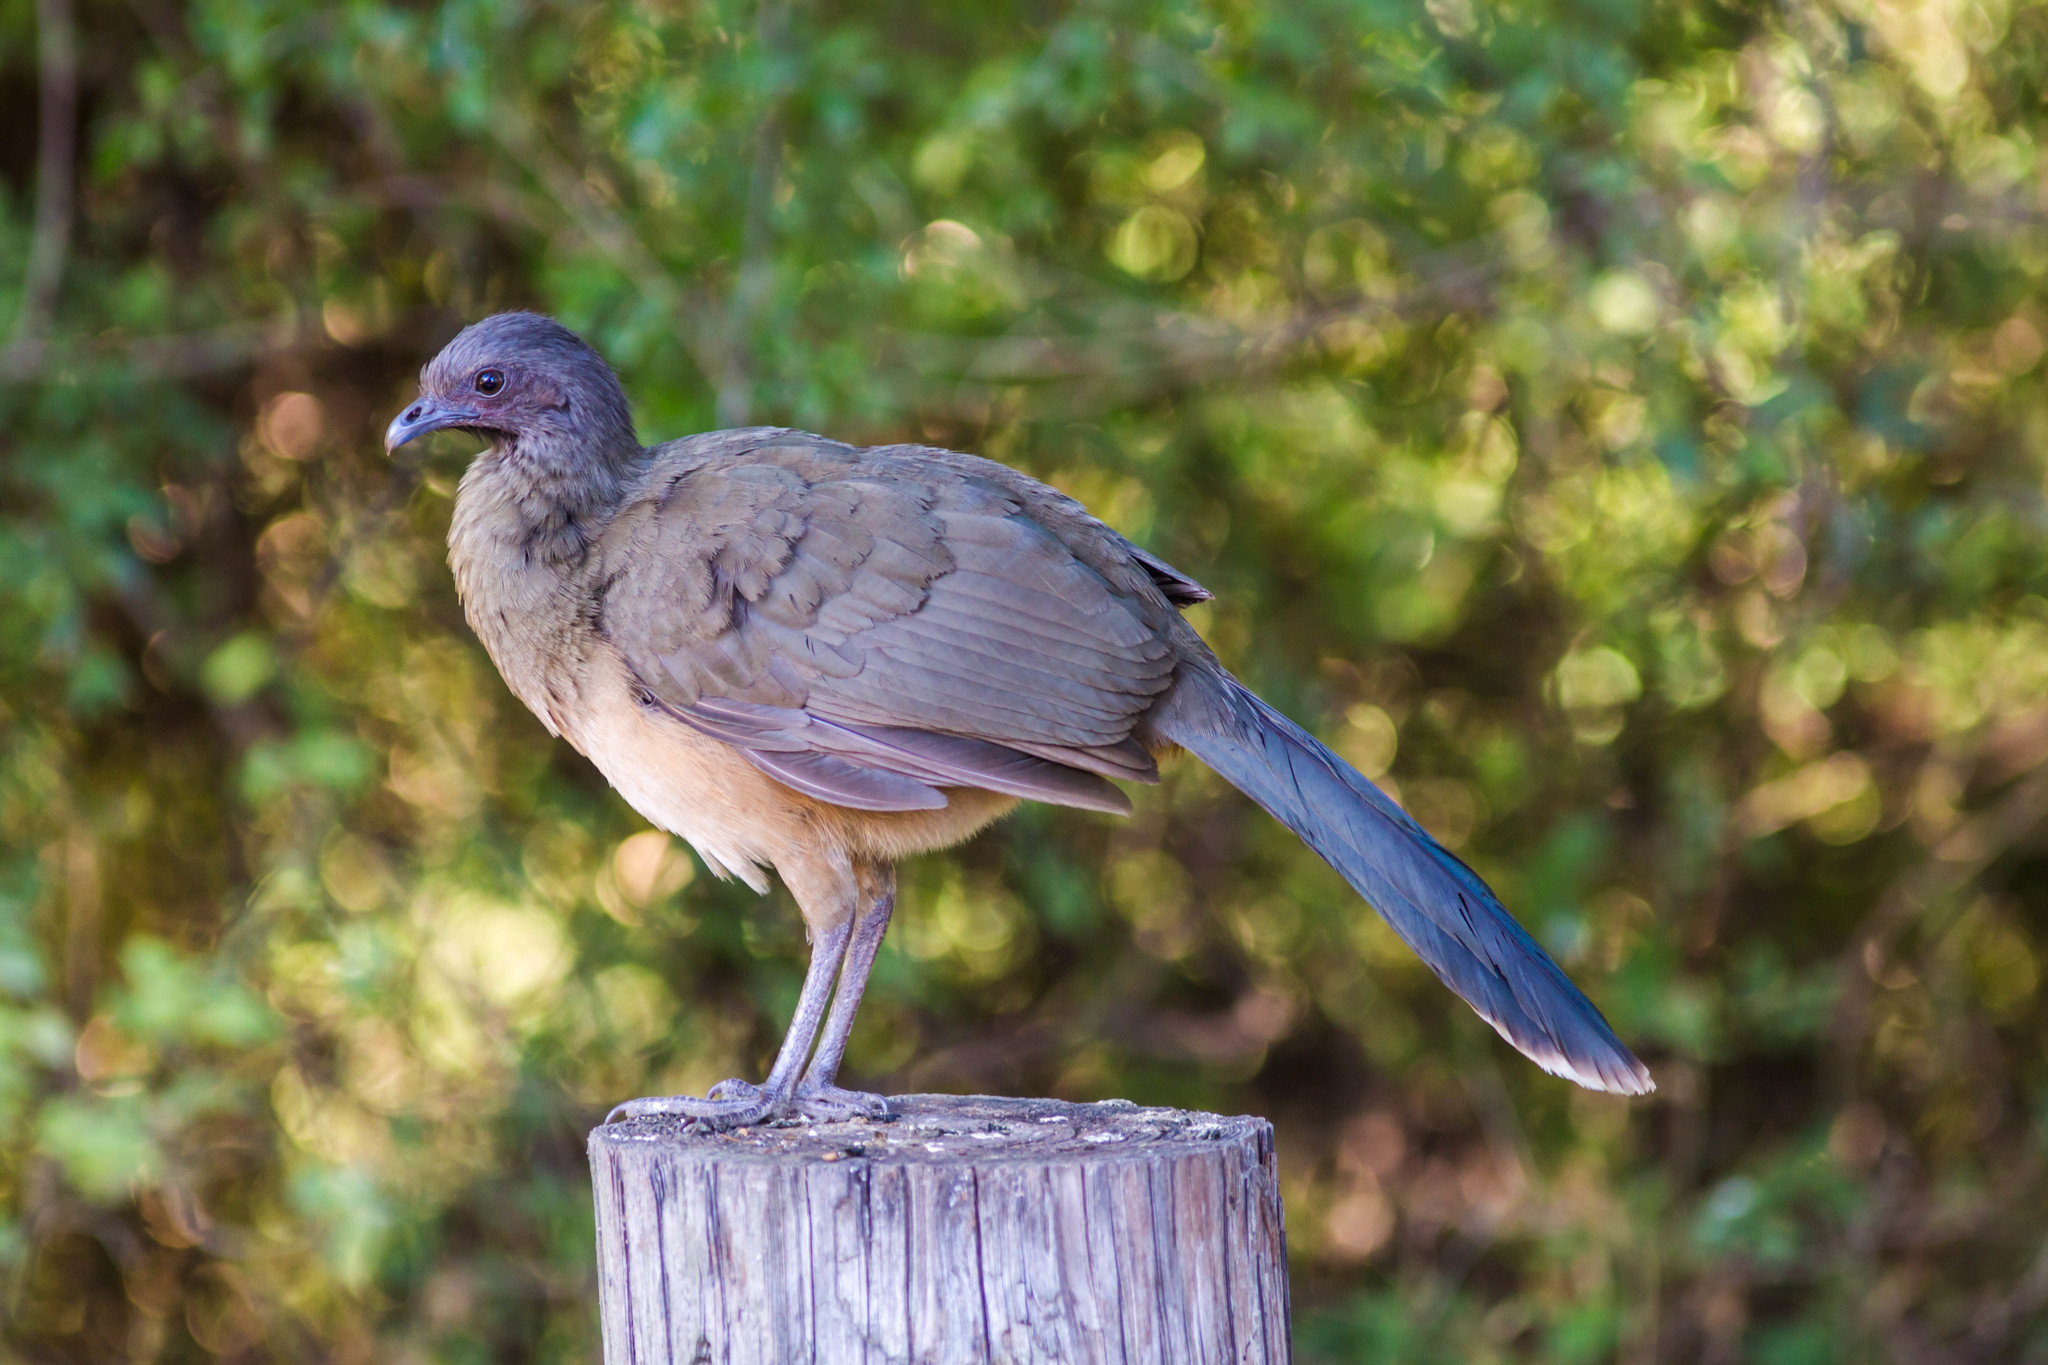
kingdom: Animalia
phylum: Chordata
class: Aves
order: Galliformes
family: Cracidae
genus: Ortalis
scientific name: Ortalis vetula
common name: Plain chachalaca
